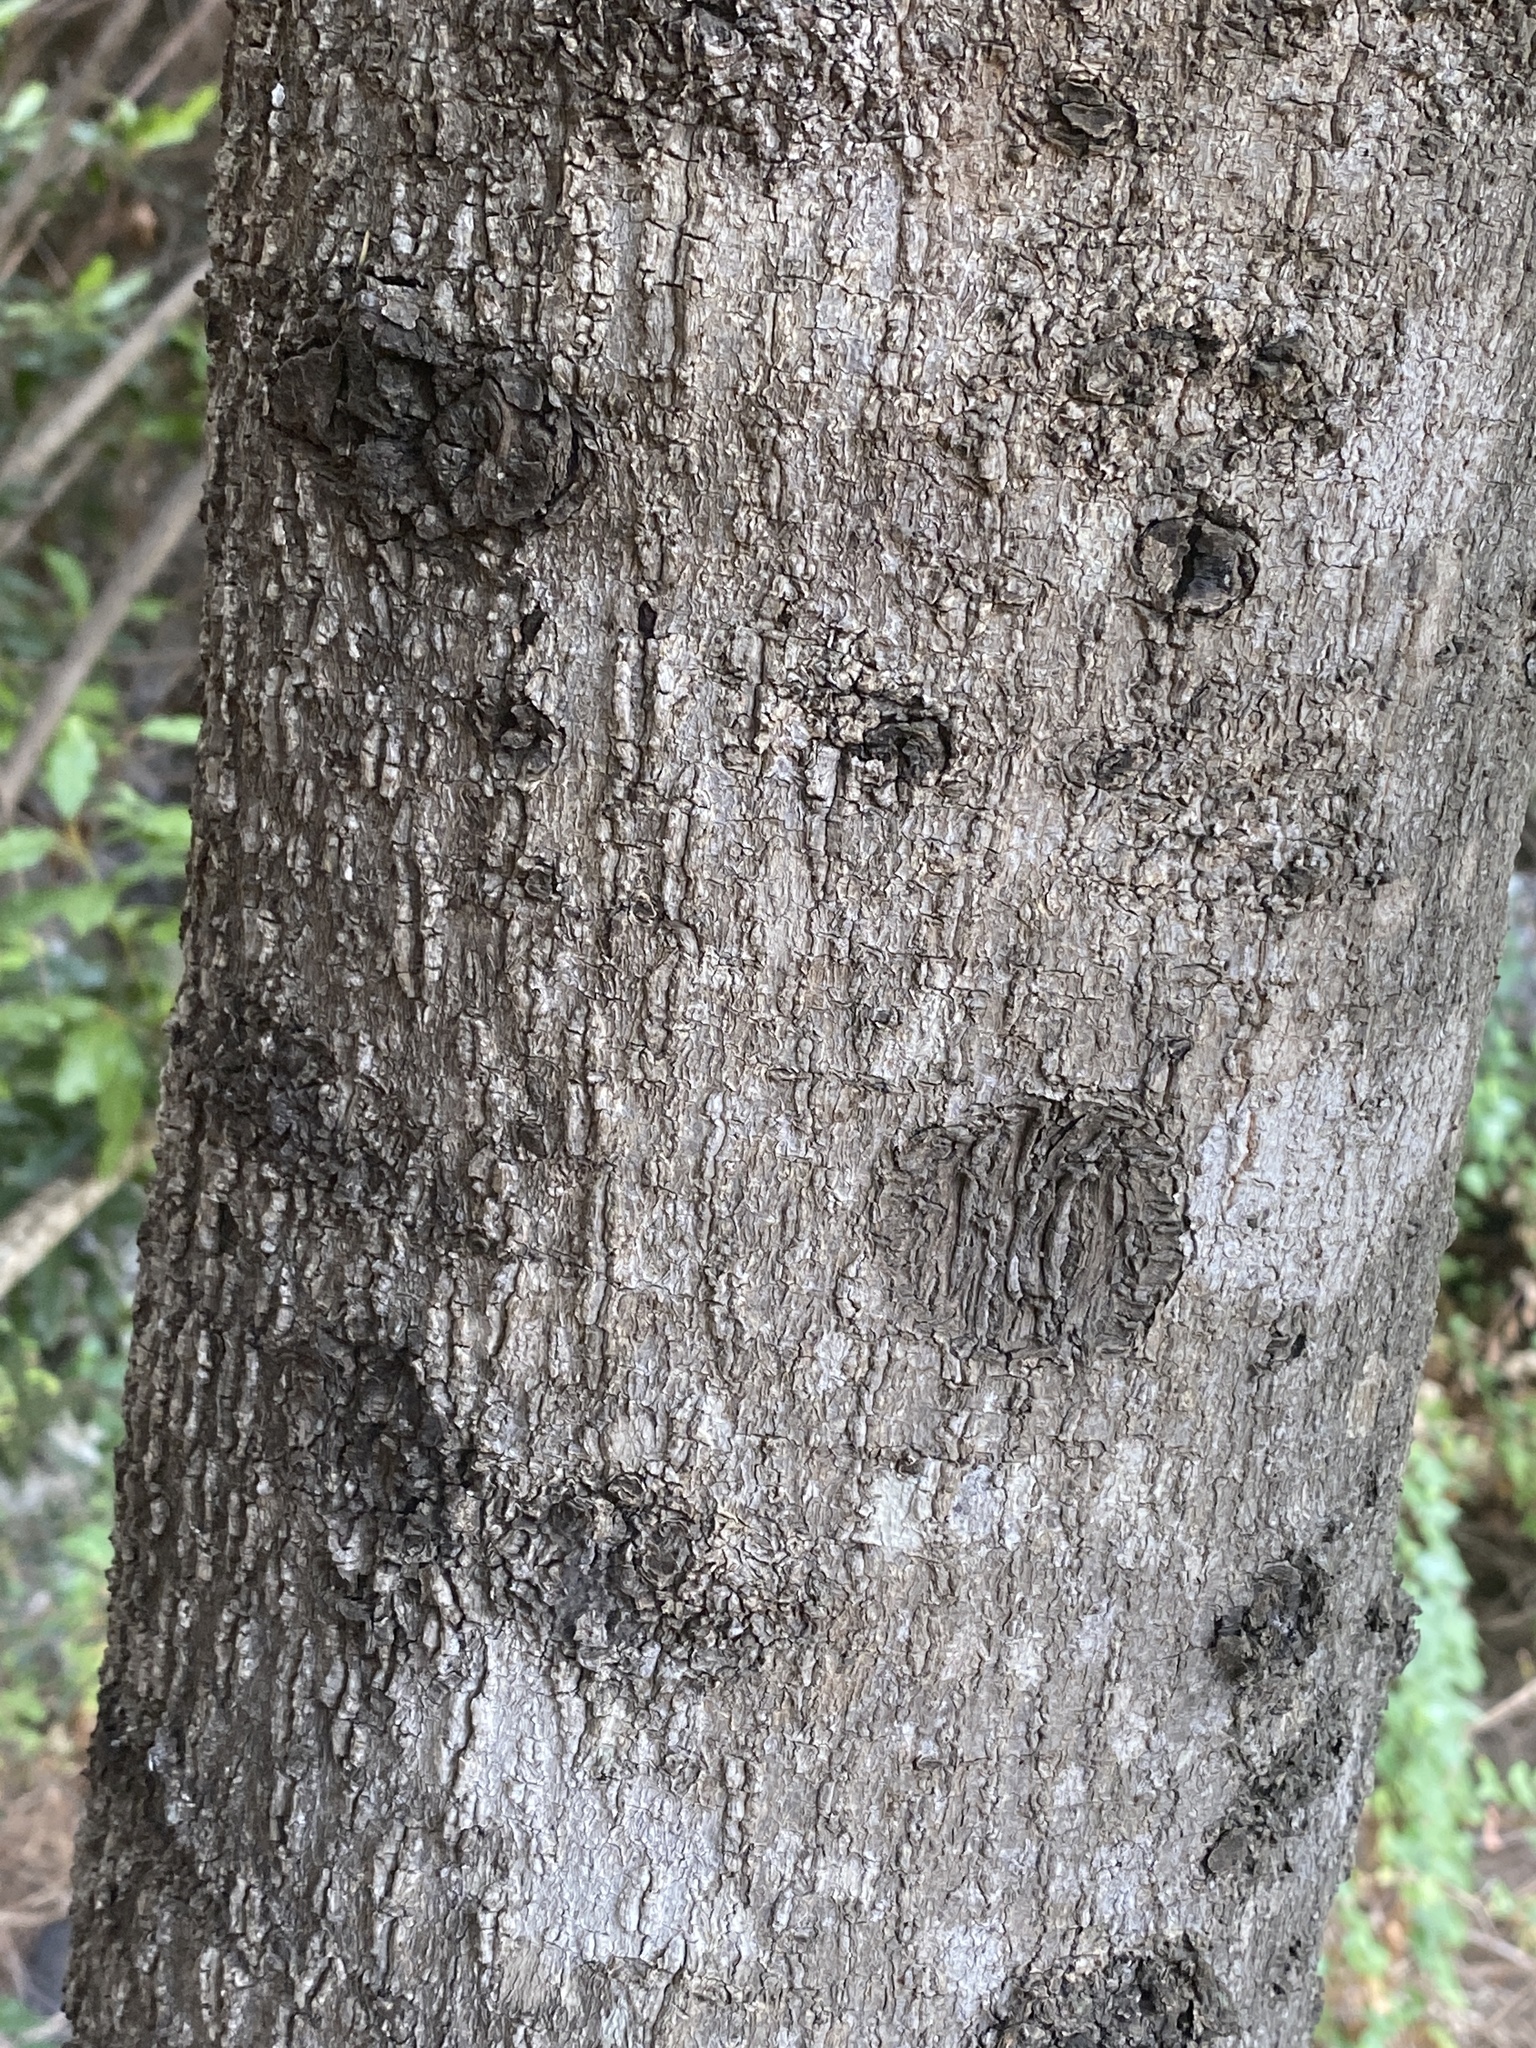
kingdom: Plantae
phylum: Tracheophyta
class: Magnoliopsida
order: Fagales
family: Myricaceae
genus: Morella
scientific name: Morella faya
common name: Firetree
